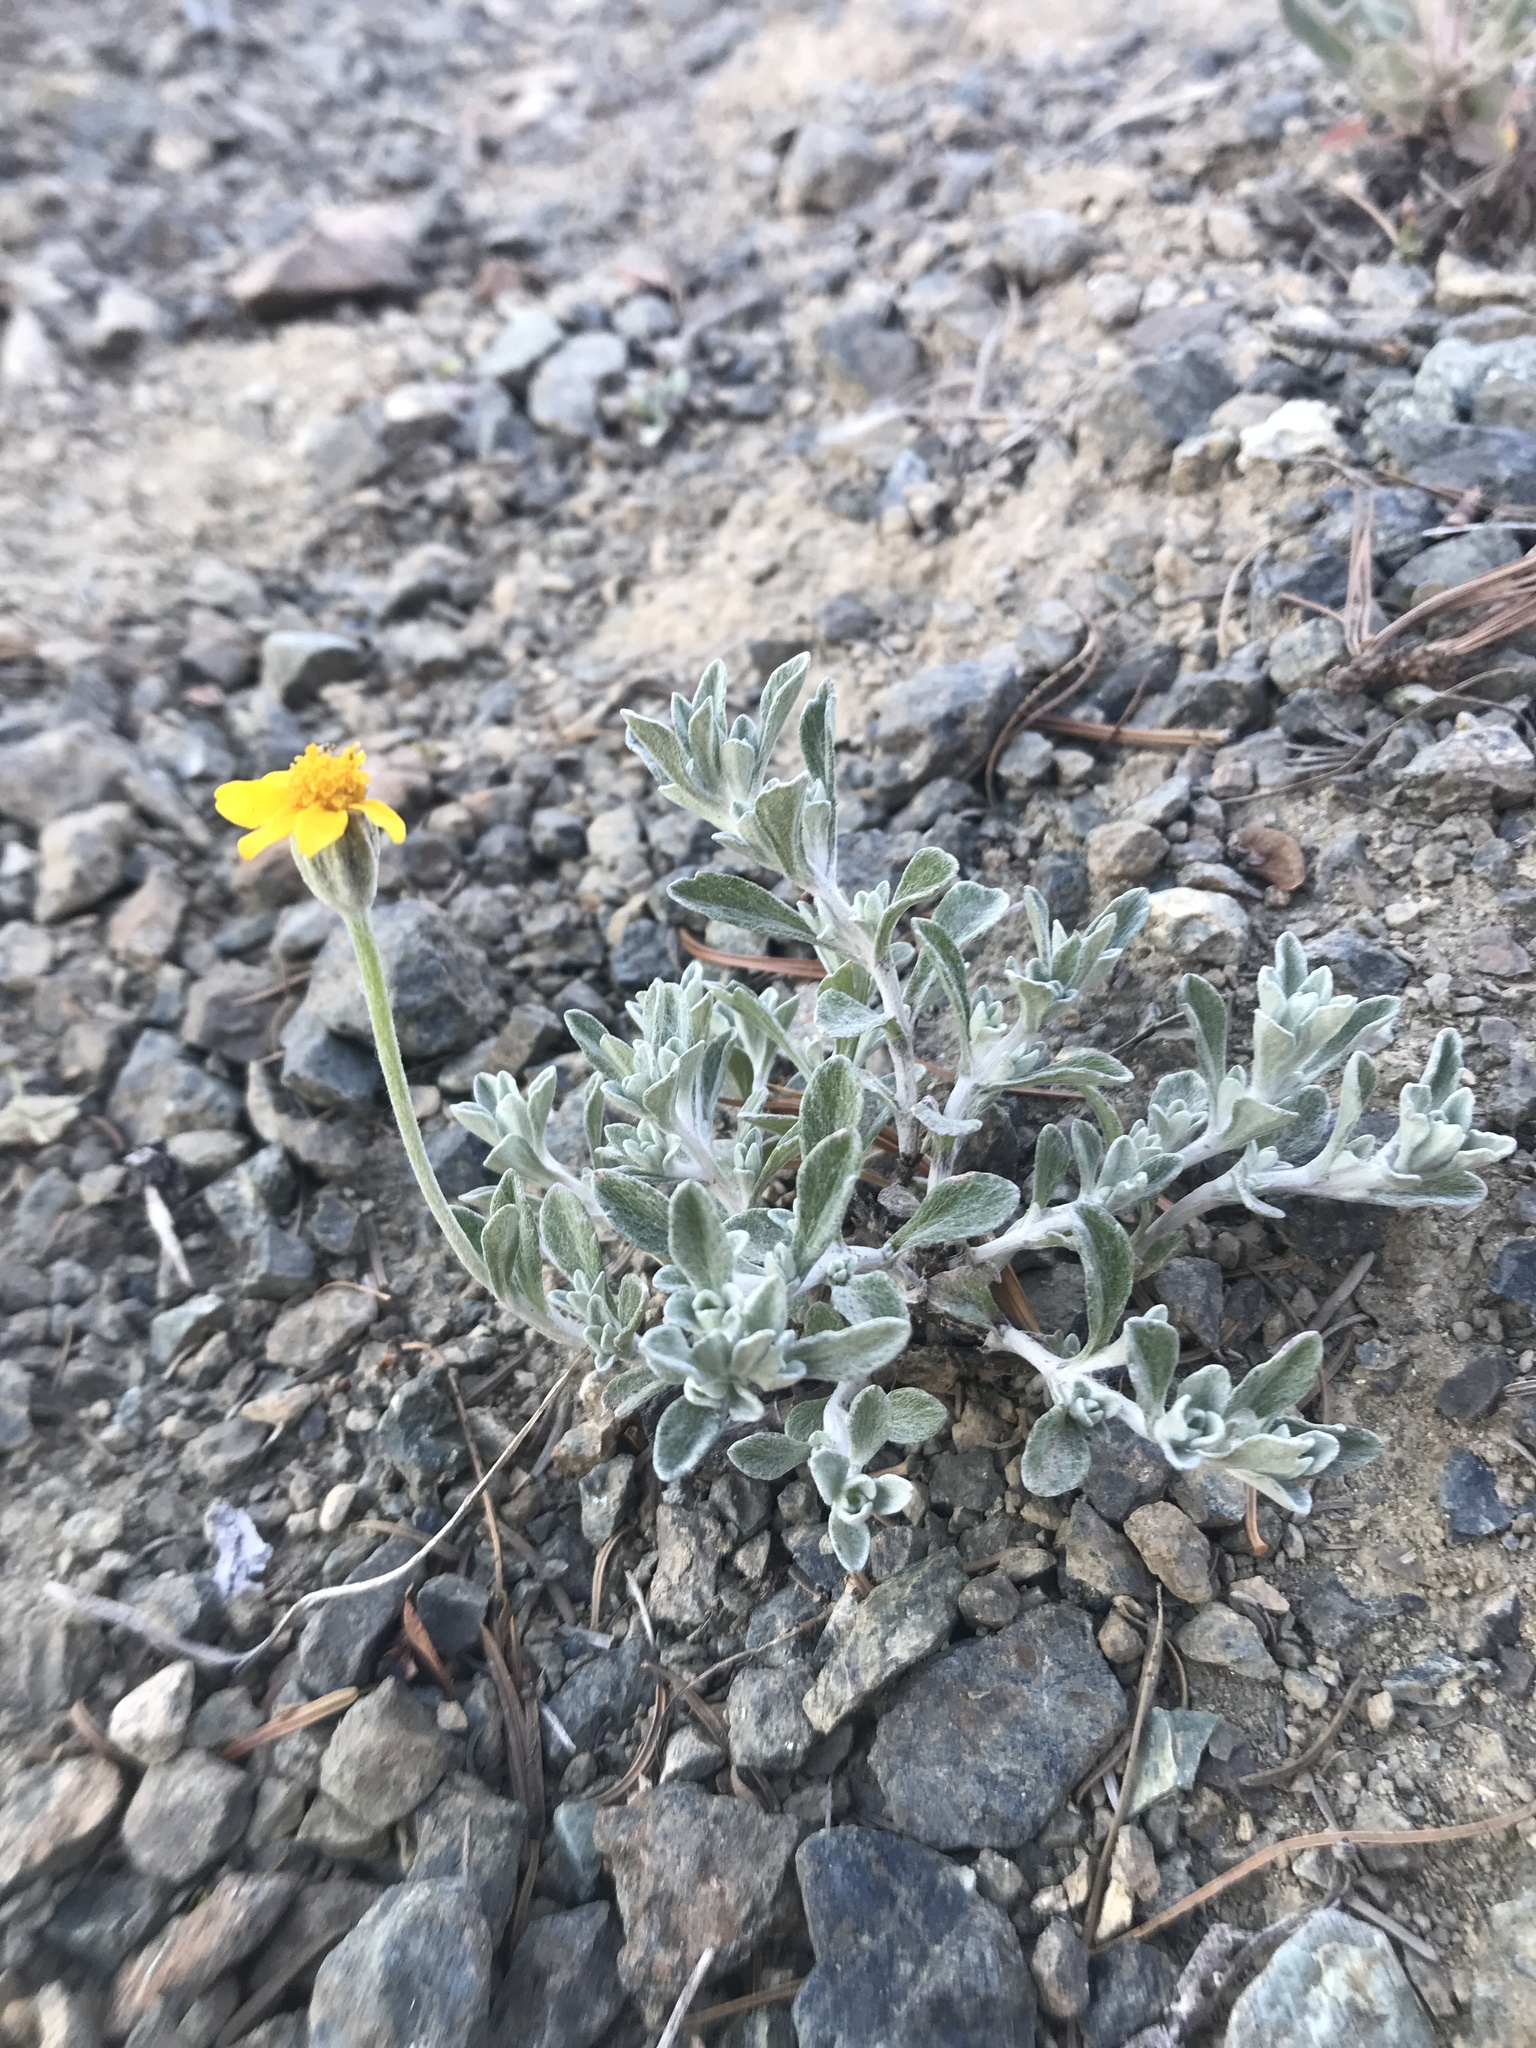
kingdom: Plantae
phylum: Tracheophyta
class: Magnoliopsida
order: Asterales
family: Asteraceae
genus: Eriophyllum
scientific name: Eriophyllum lanatum
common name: Common woolly-sunflower
